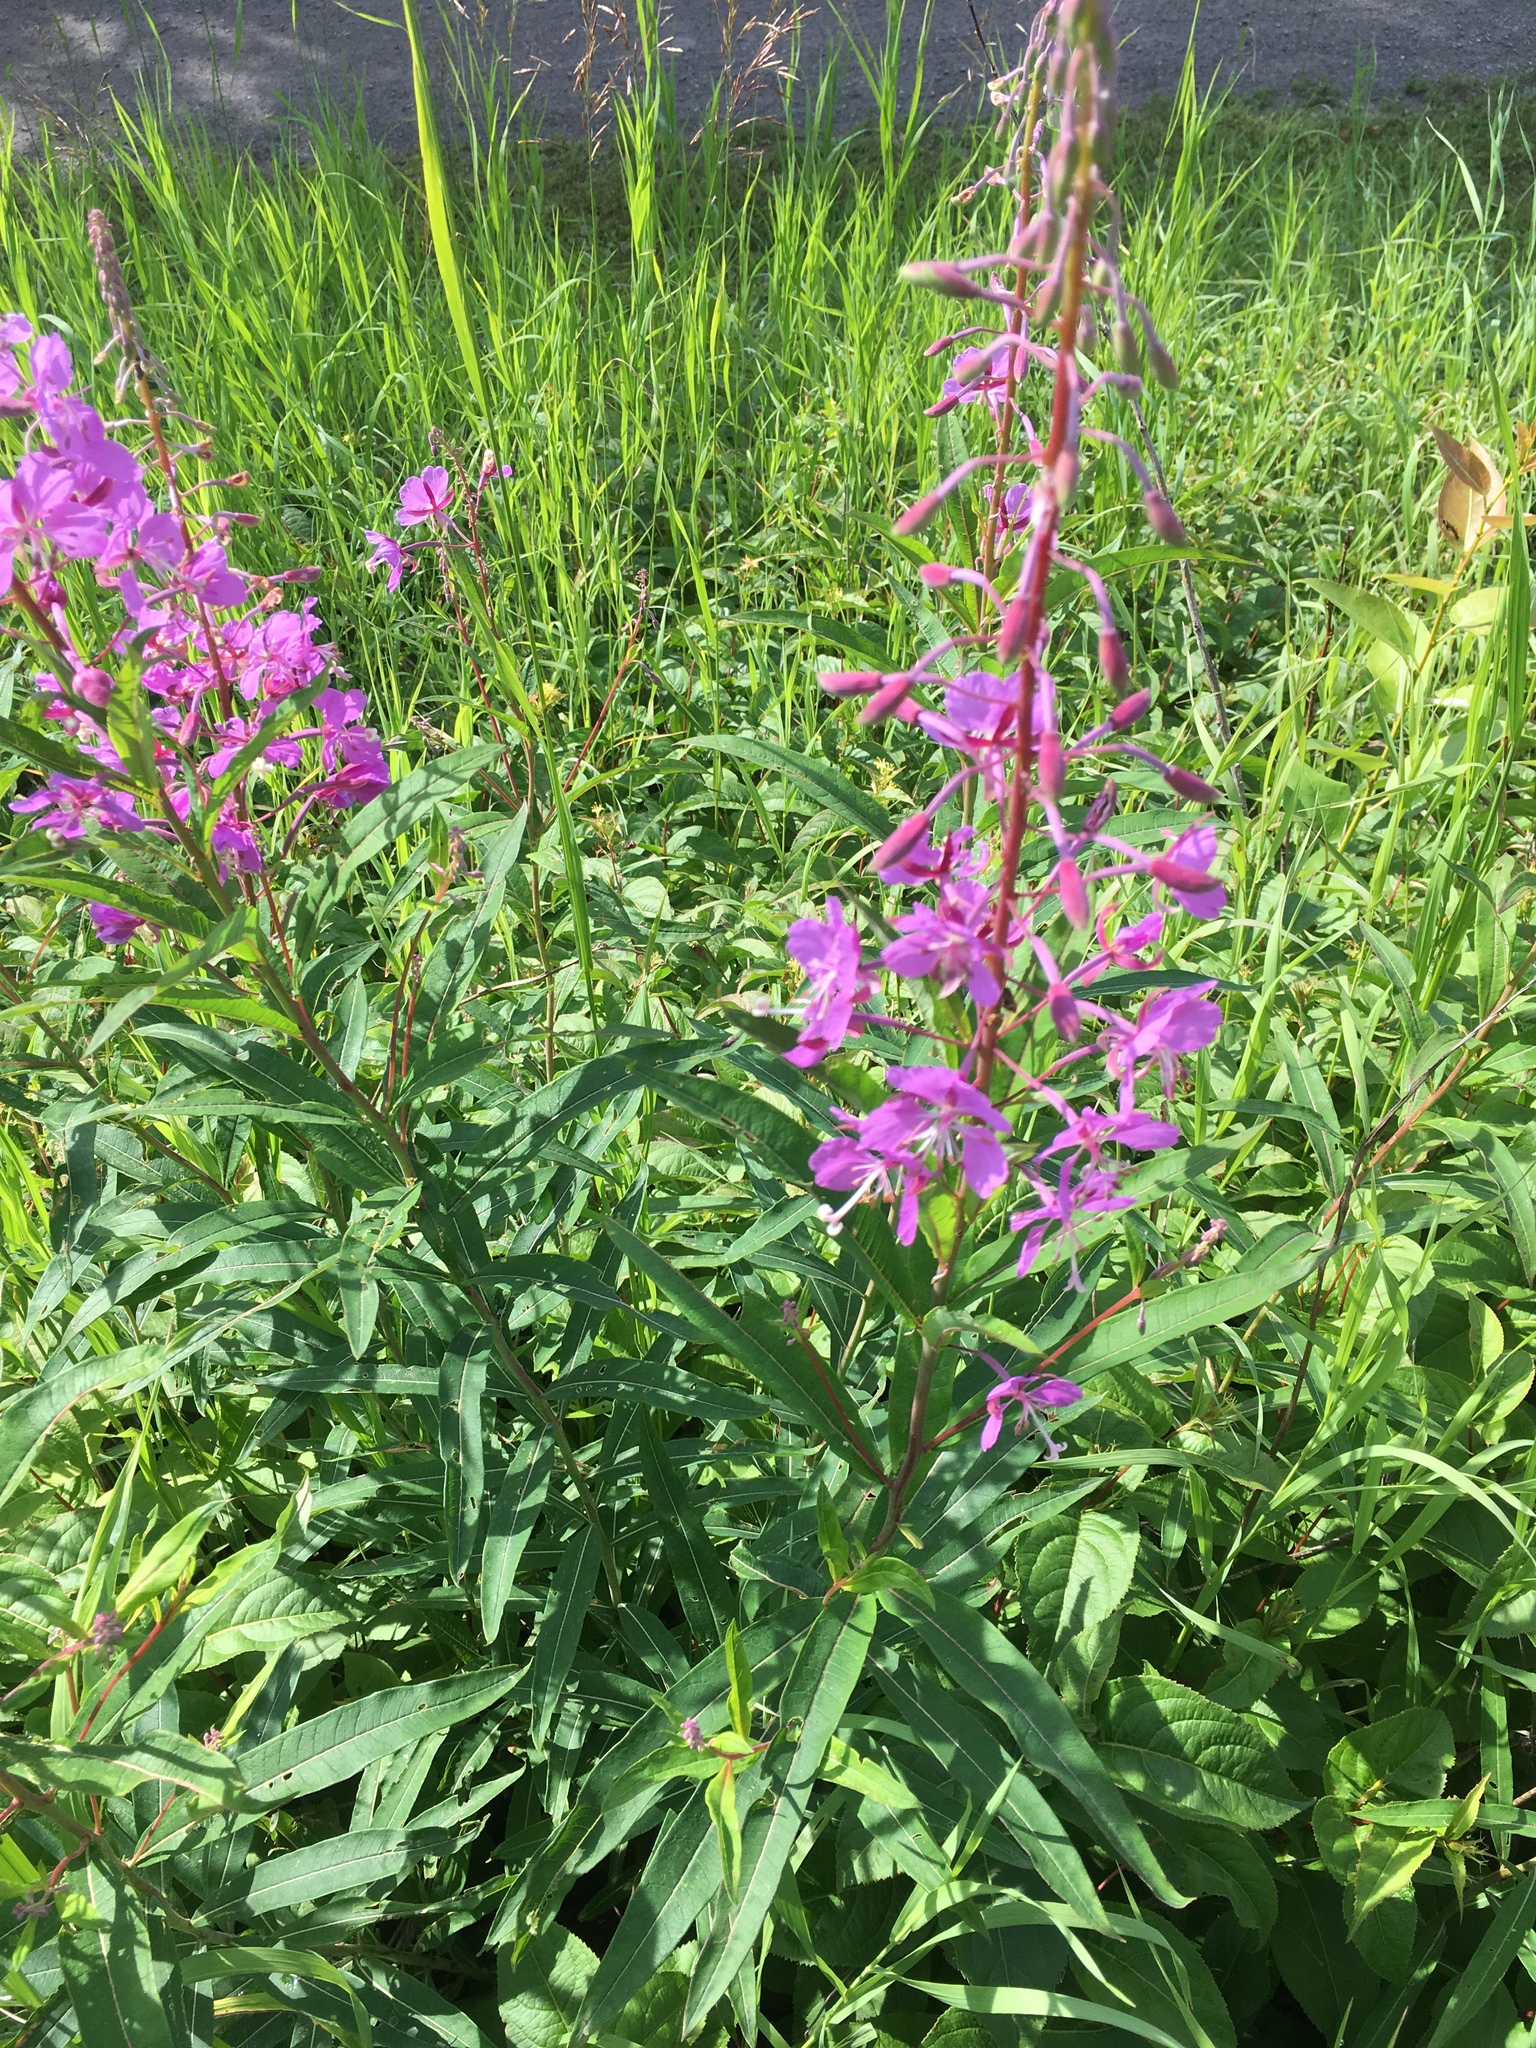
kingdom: Plantae
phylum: Tracheophyta
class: Magnoliopsida
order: Myrtales
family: Onagraceae
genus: Chamaenerion
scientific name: Chamaenerion angustifolium
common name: Fireweed
